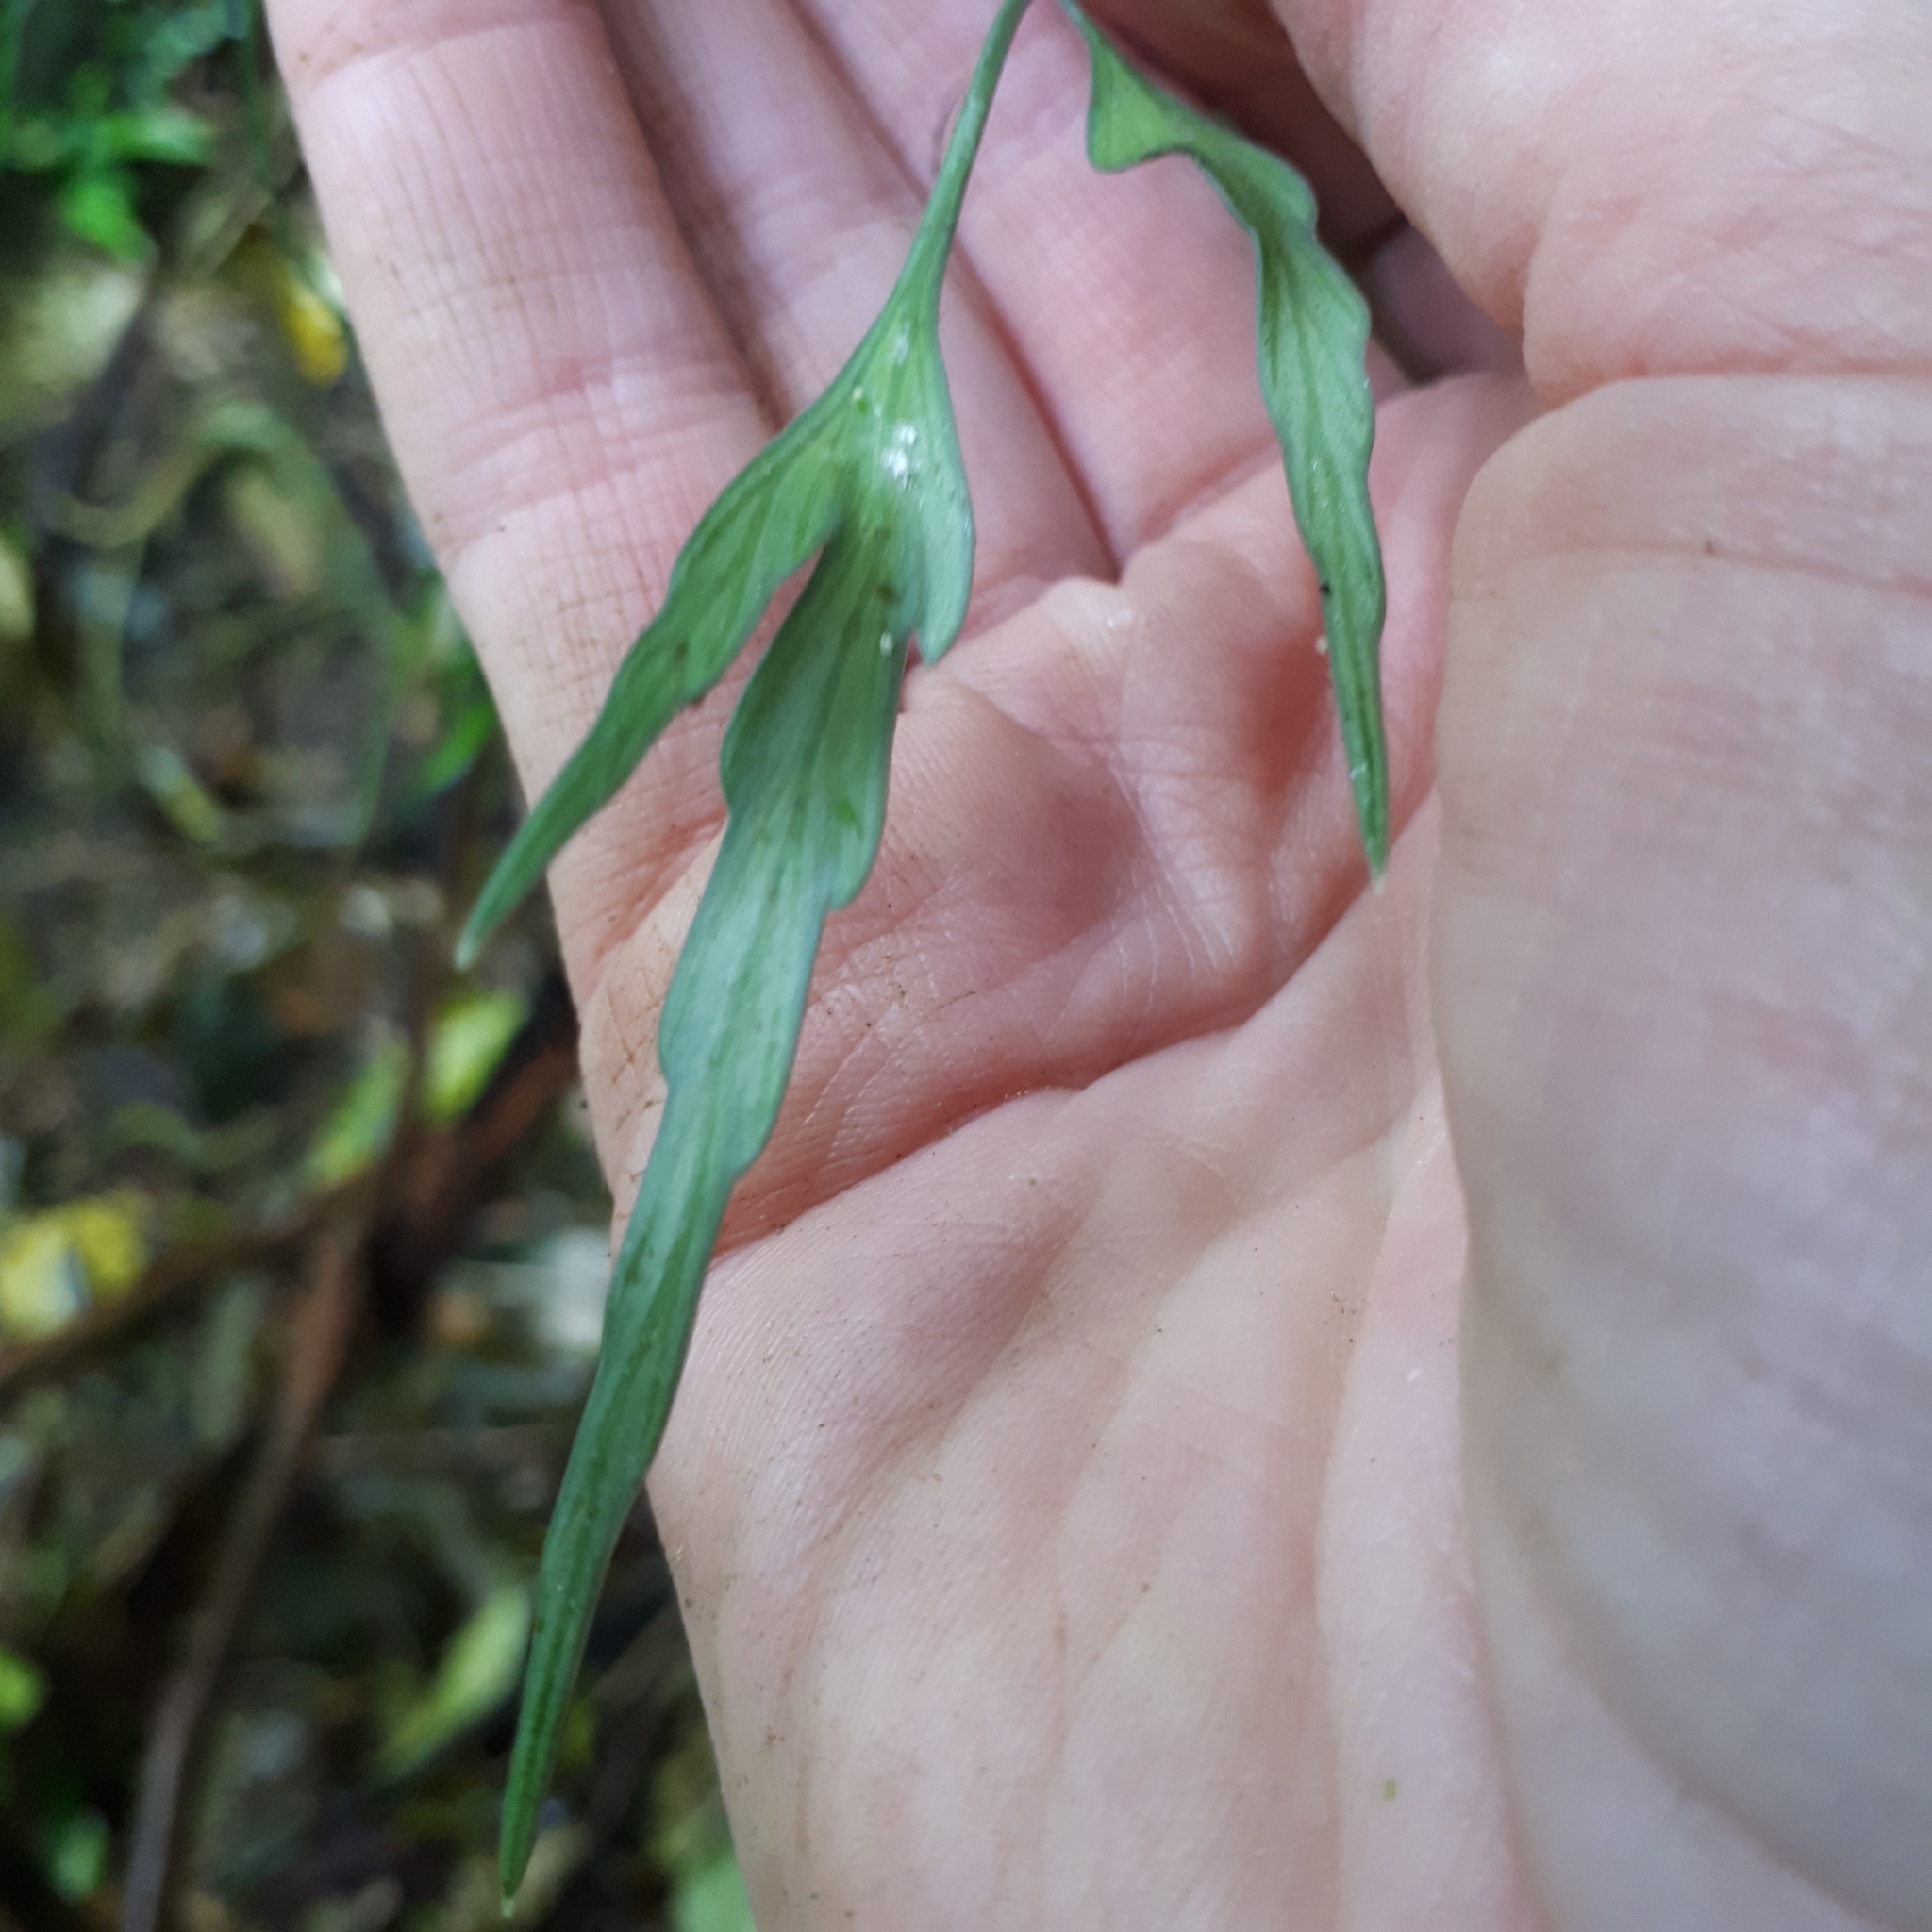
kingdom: Plantae
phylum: Tracheophyta
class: Polypodiopsida
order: Polypodiales
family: Aspleniaceae
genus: Asplenium
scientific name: Asplenium flaccidum
